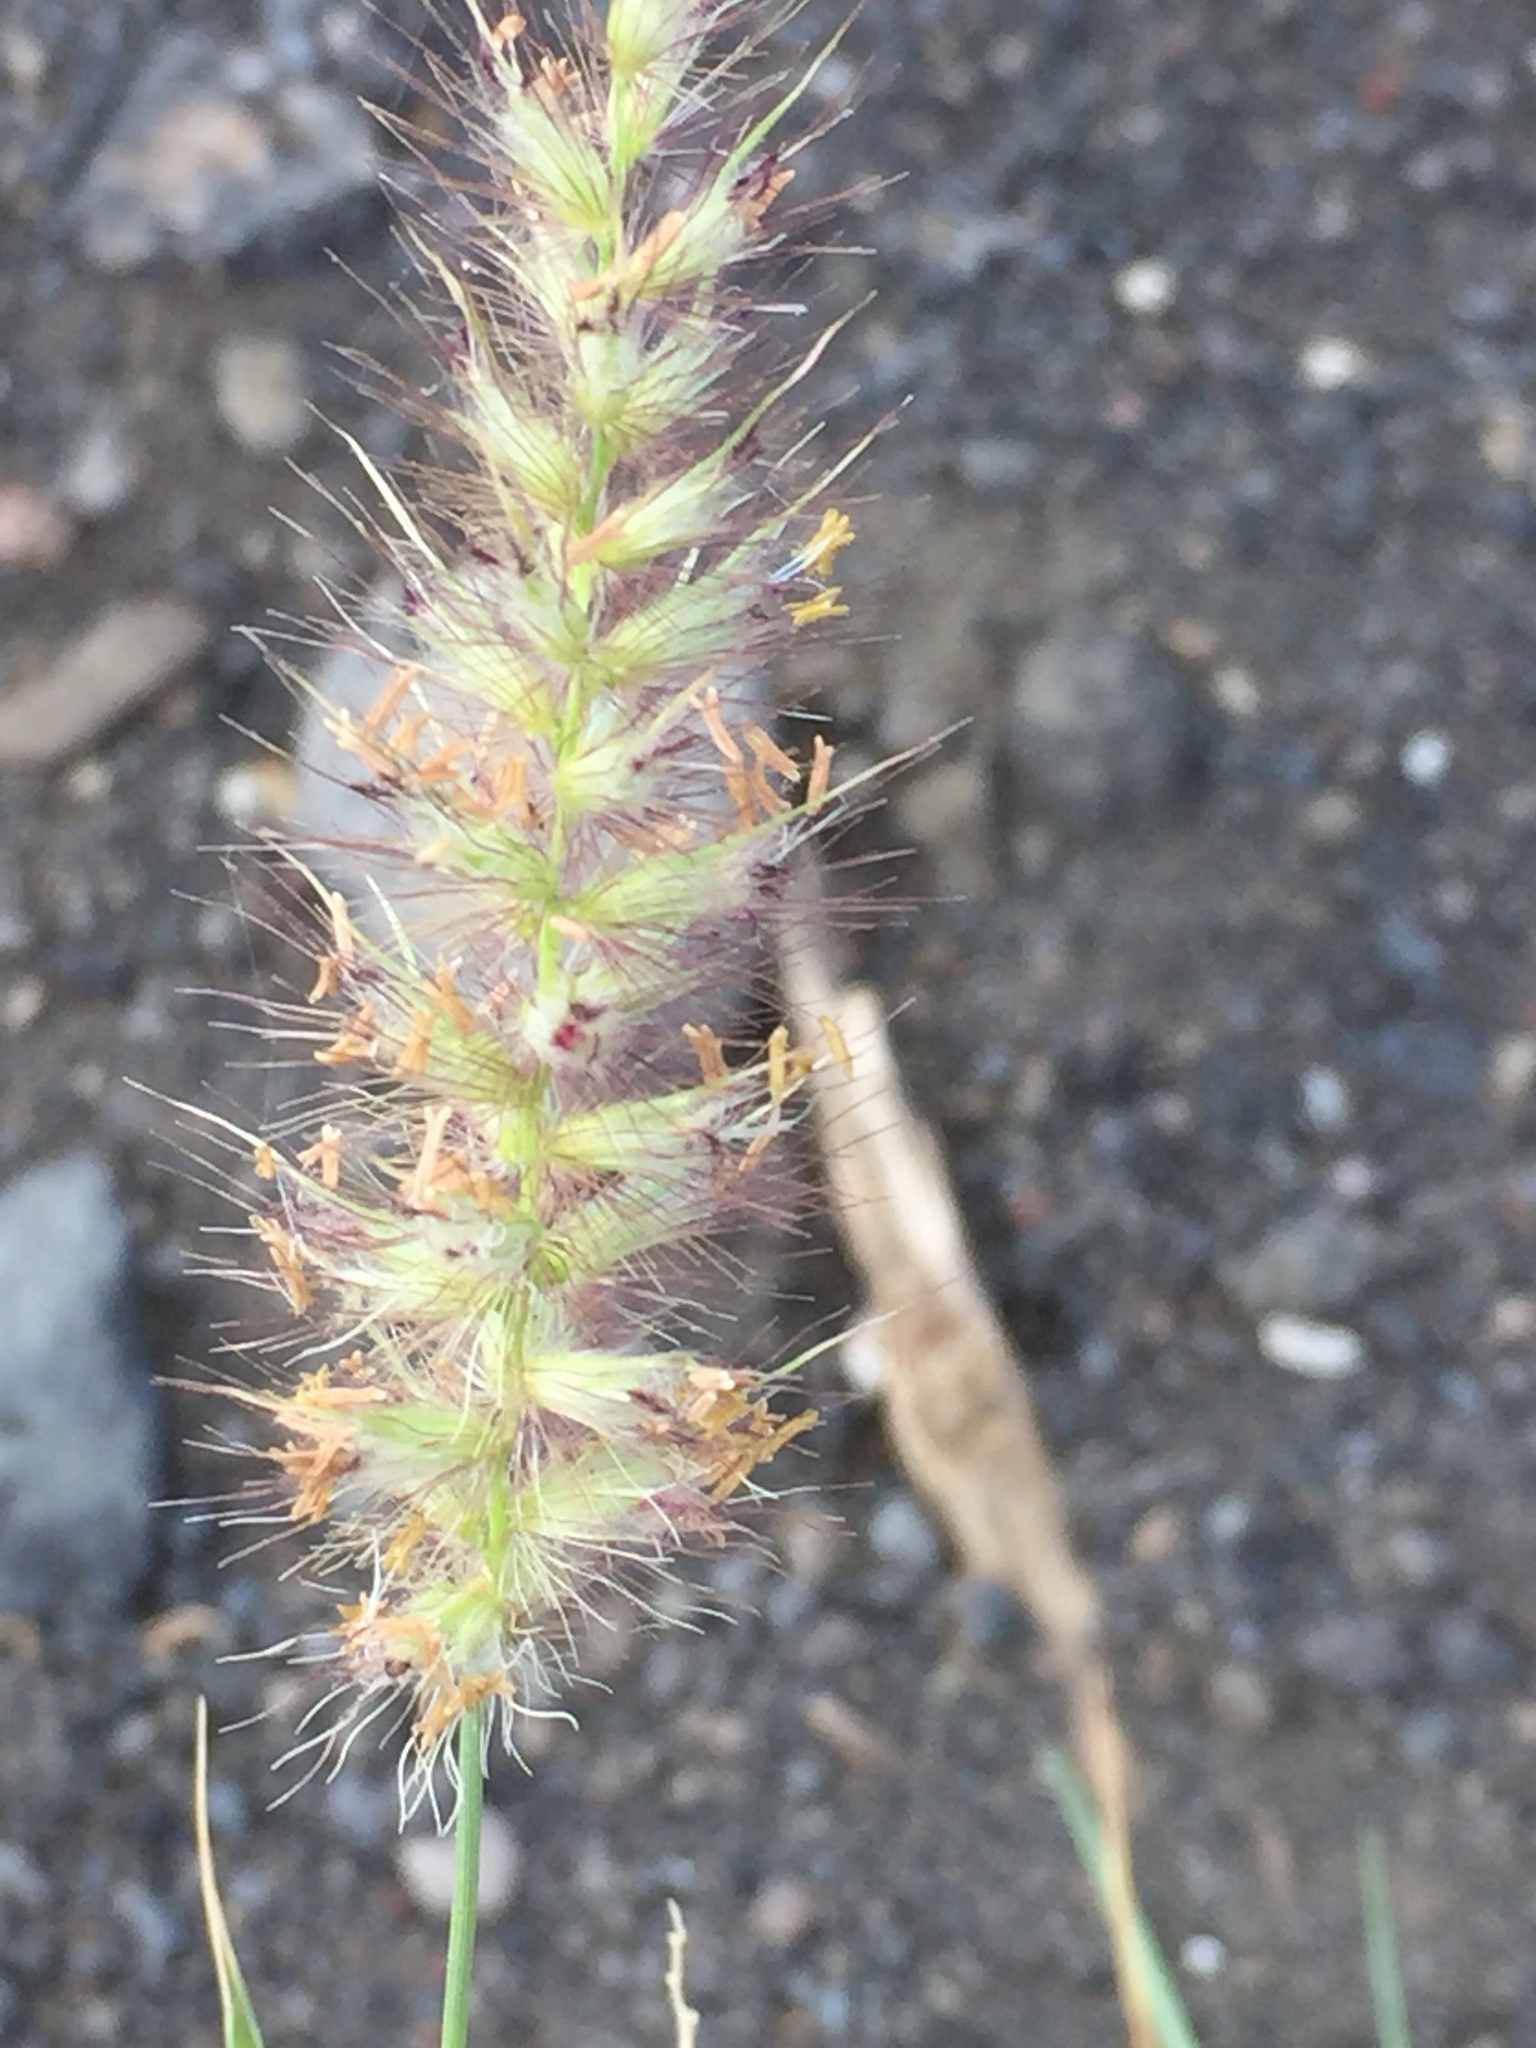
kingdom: Plantae
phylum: Tracheophyta
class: Liliopsida
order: Poales
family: Poaceae
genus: Cenchrus
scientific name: Cenchrus ciliaris
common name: Buffelgrass
